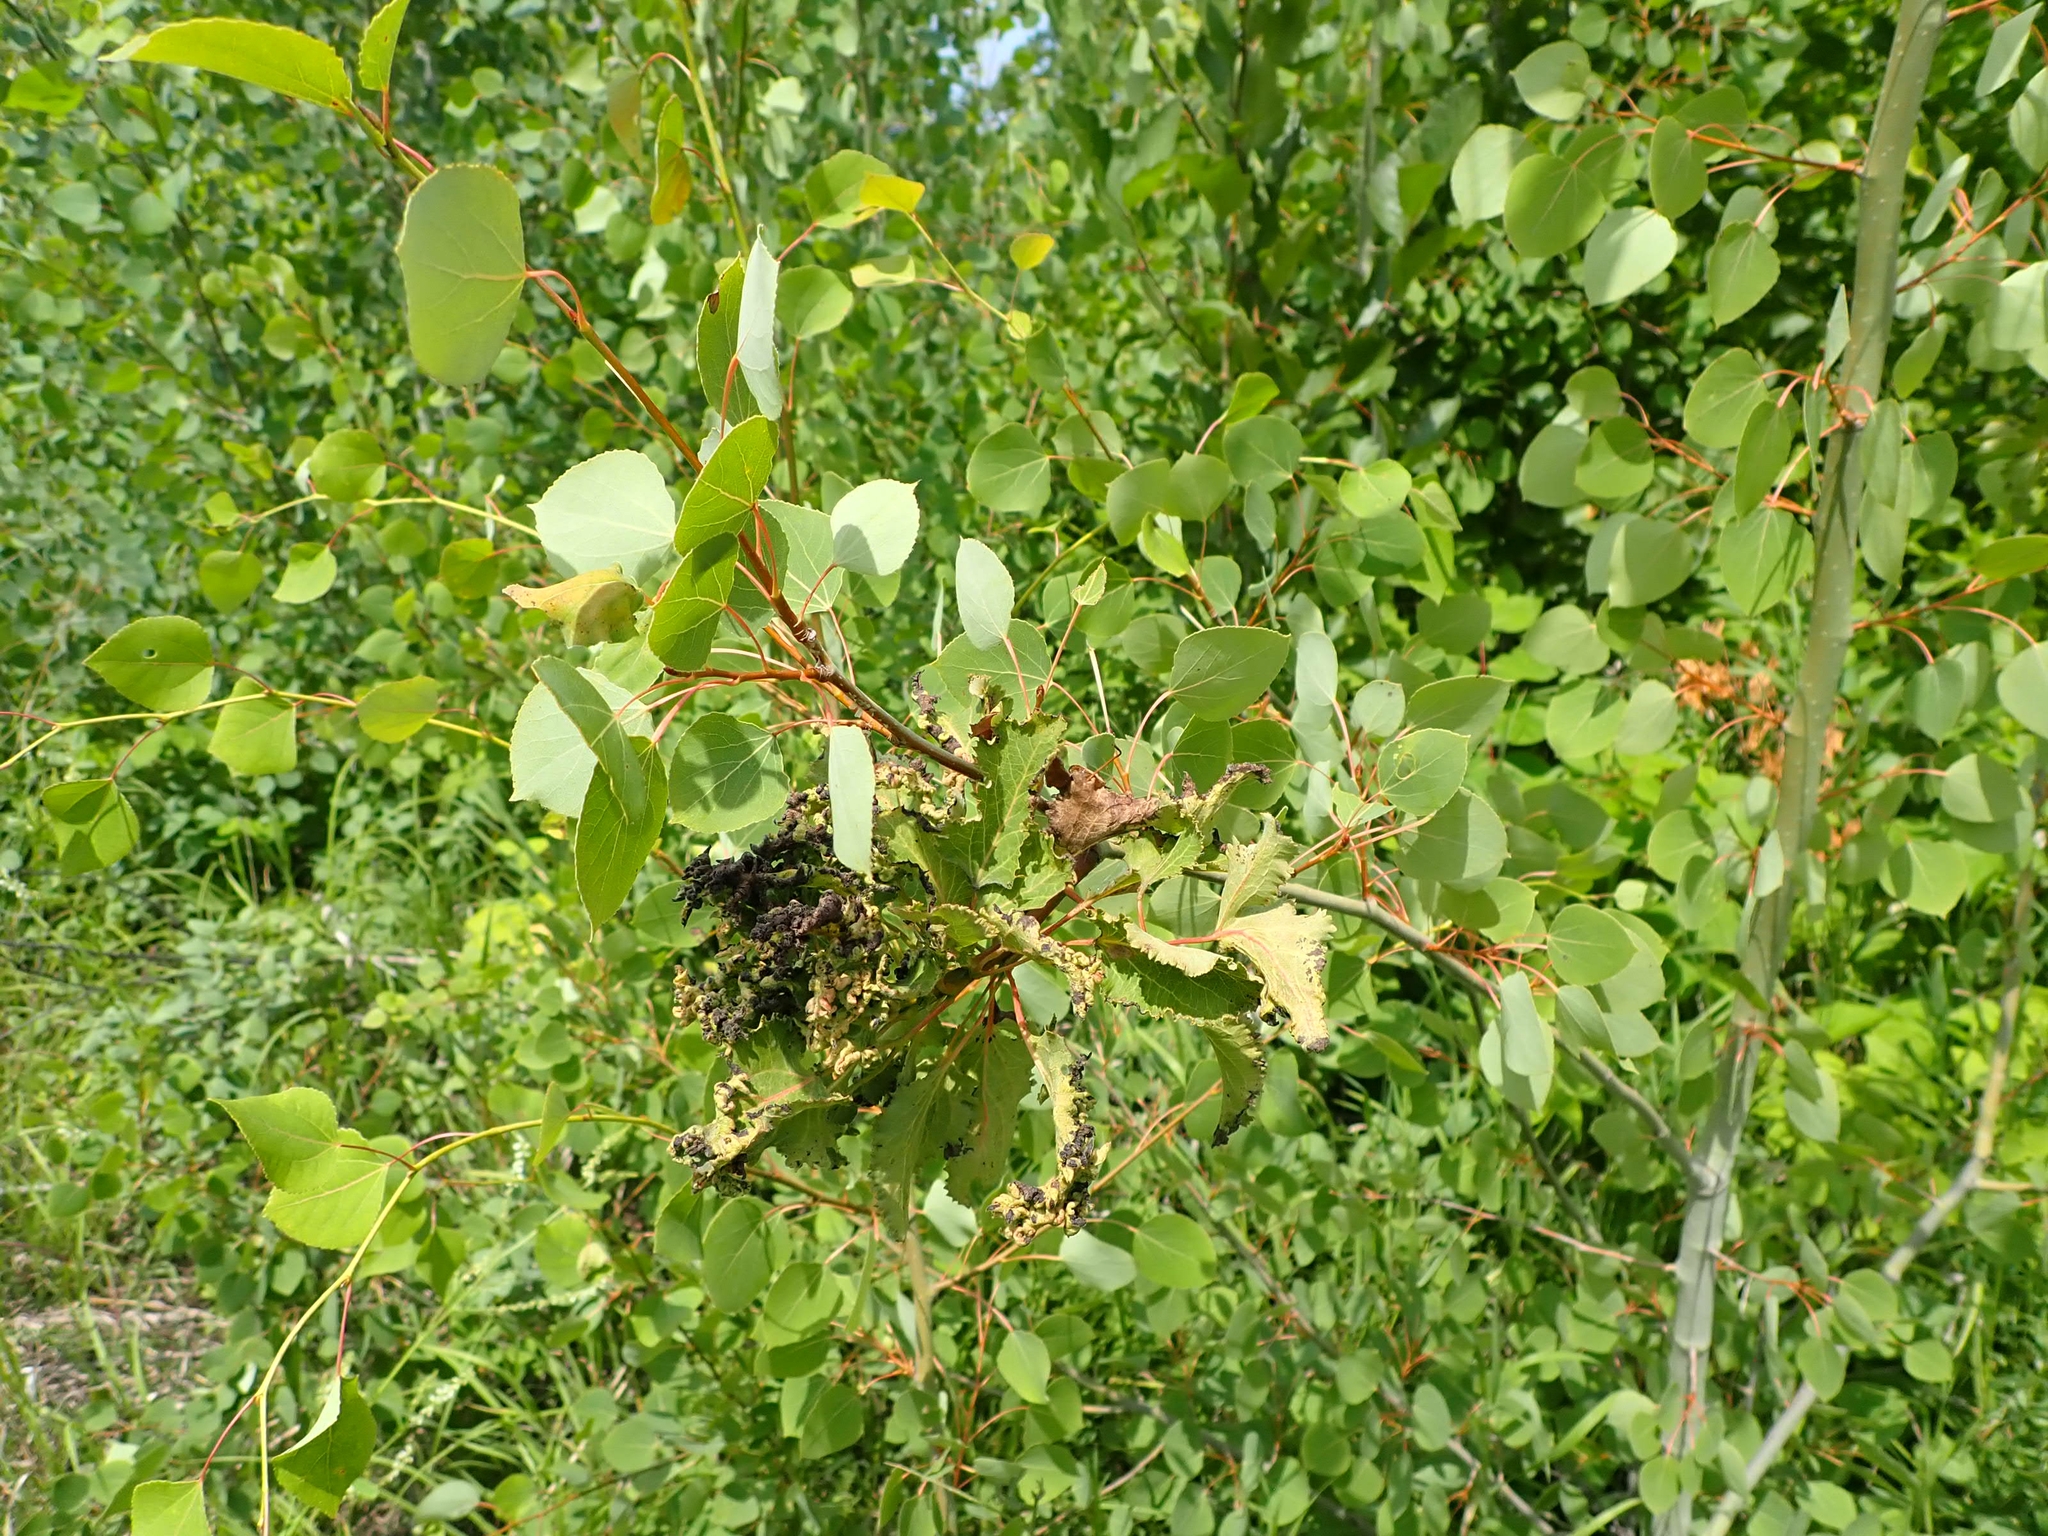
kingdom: Plantae
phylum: Tracheophyta
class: Magnoliopsida
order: Malpighiales
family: Salicaceae
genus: Populus
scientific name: Populus tremuloides
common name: Quaking aspen
